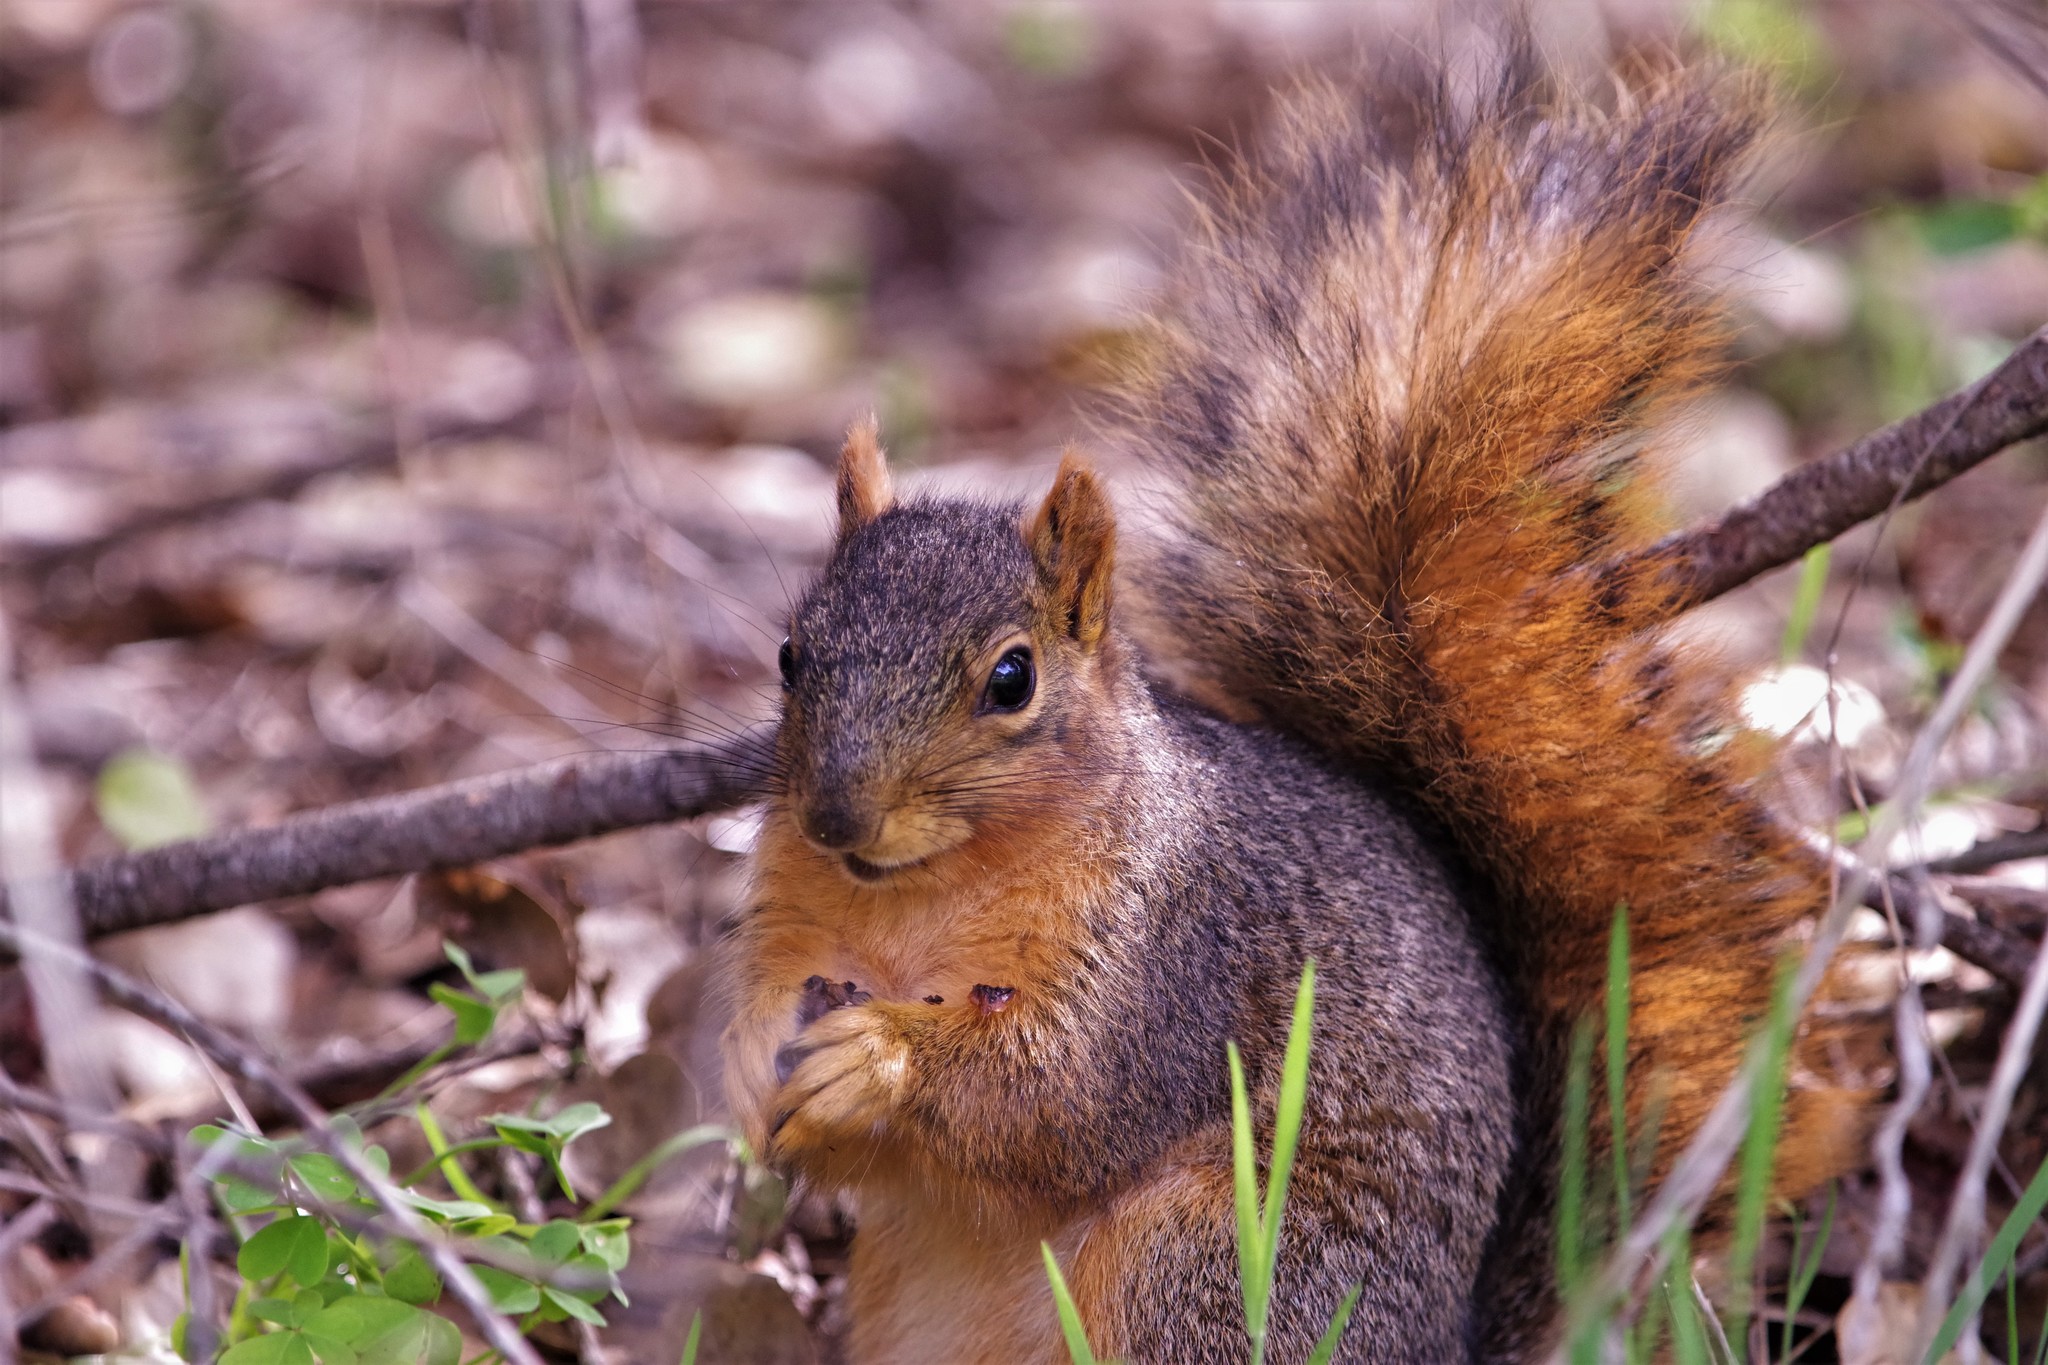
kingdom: Animalia
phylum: Chordata
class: Mammalia
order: Rodentia
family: Sciuridae
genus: Sciurus
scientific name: Sciurus niger
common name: Fox squirrel
